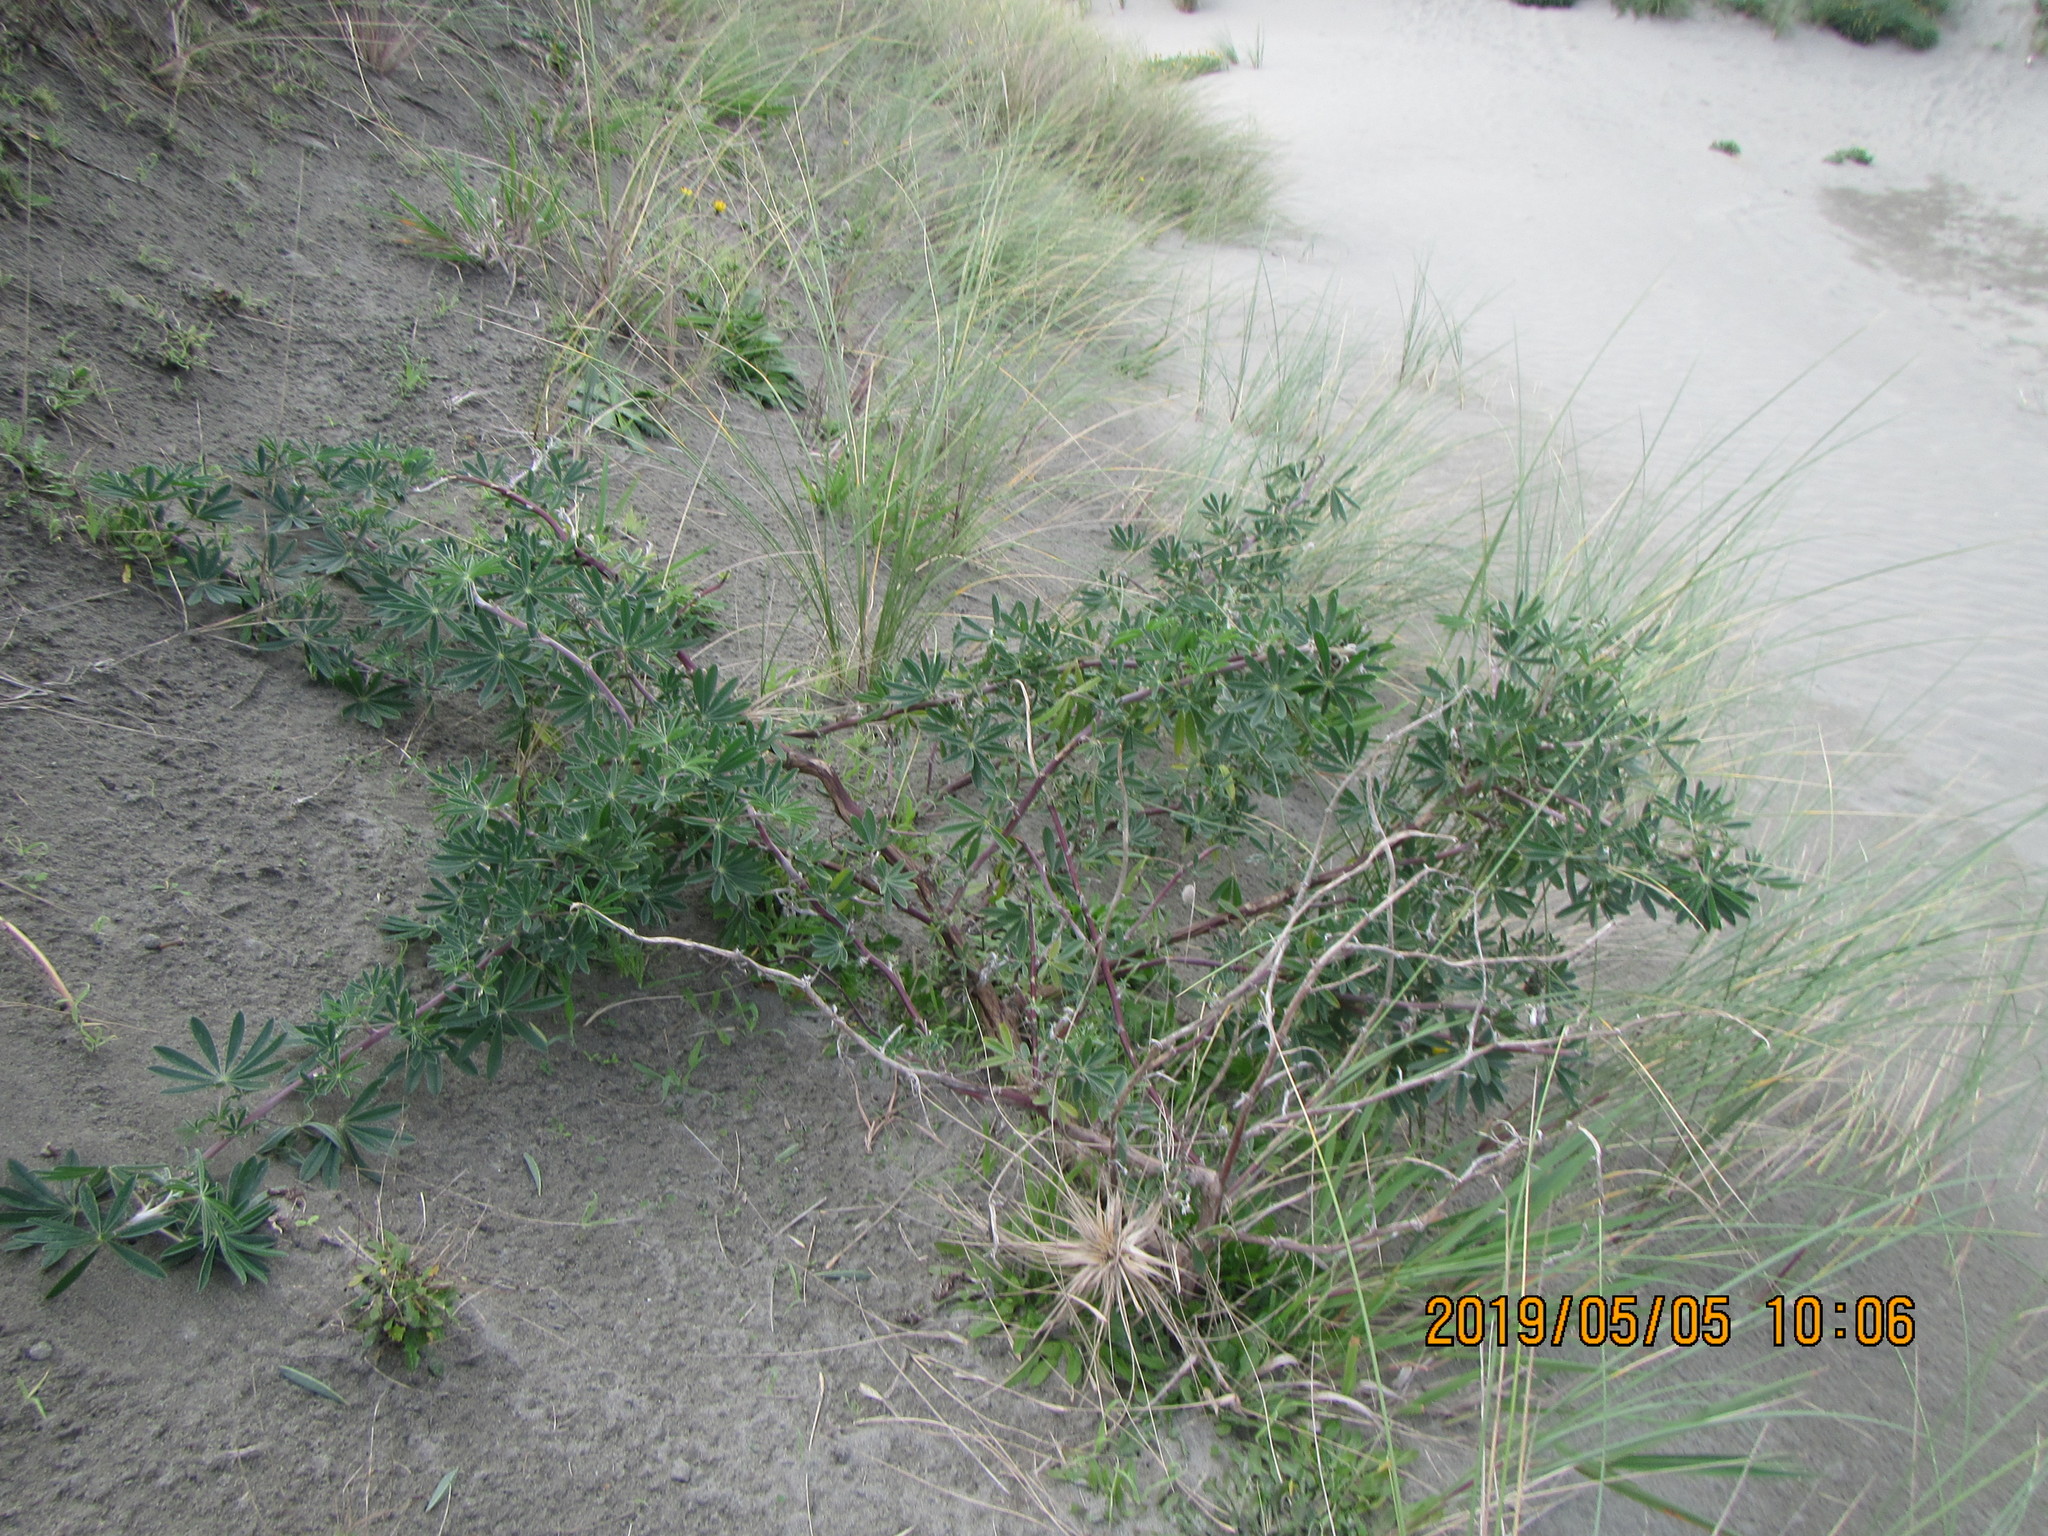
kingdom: Plantae
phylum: Tracheophyta
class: Magnoliopsida
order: Fabales
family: Fabaceae
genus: Lupinus
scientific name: Lupinus arboreus
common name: Yellow bush lupine
